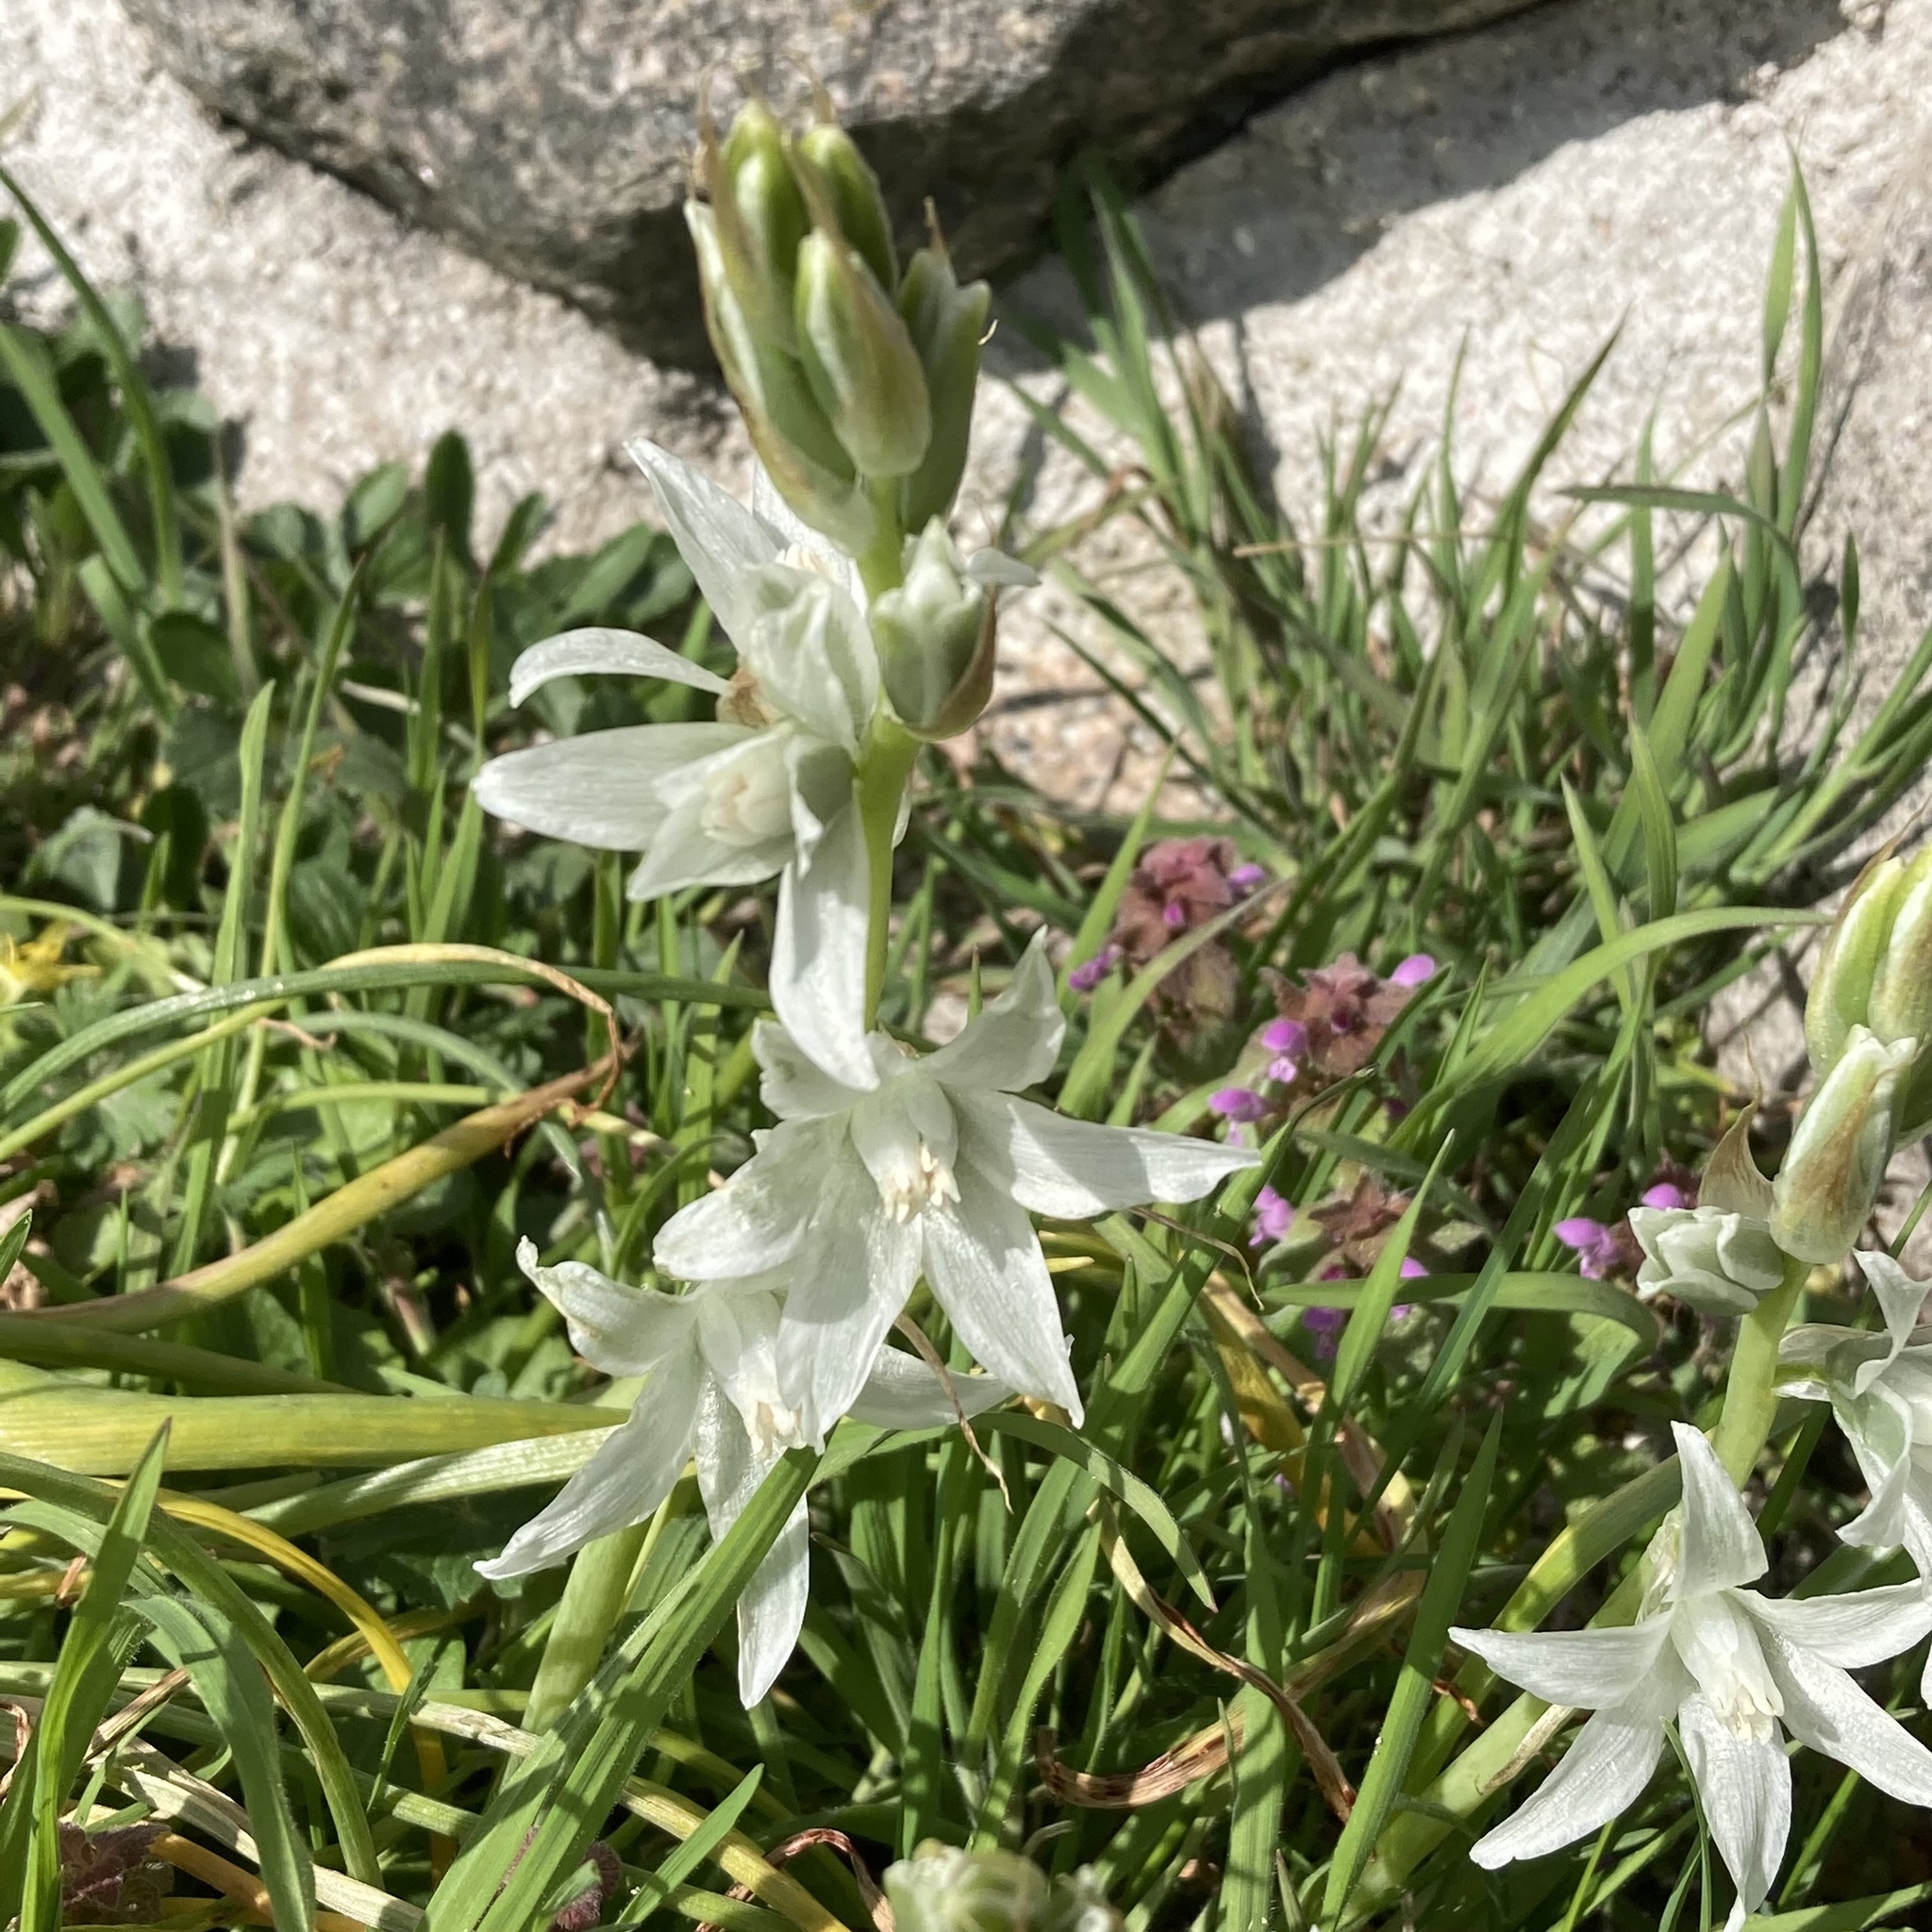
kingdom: Plantae
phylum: Tracheophyta
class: Liliopsida
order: Asparagales
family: Asparagaceae
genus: Ornithogalum
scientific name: Ornithogalum nutans
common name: Drooping star-of-bethlehem
